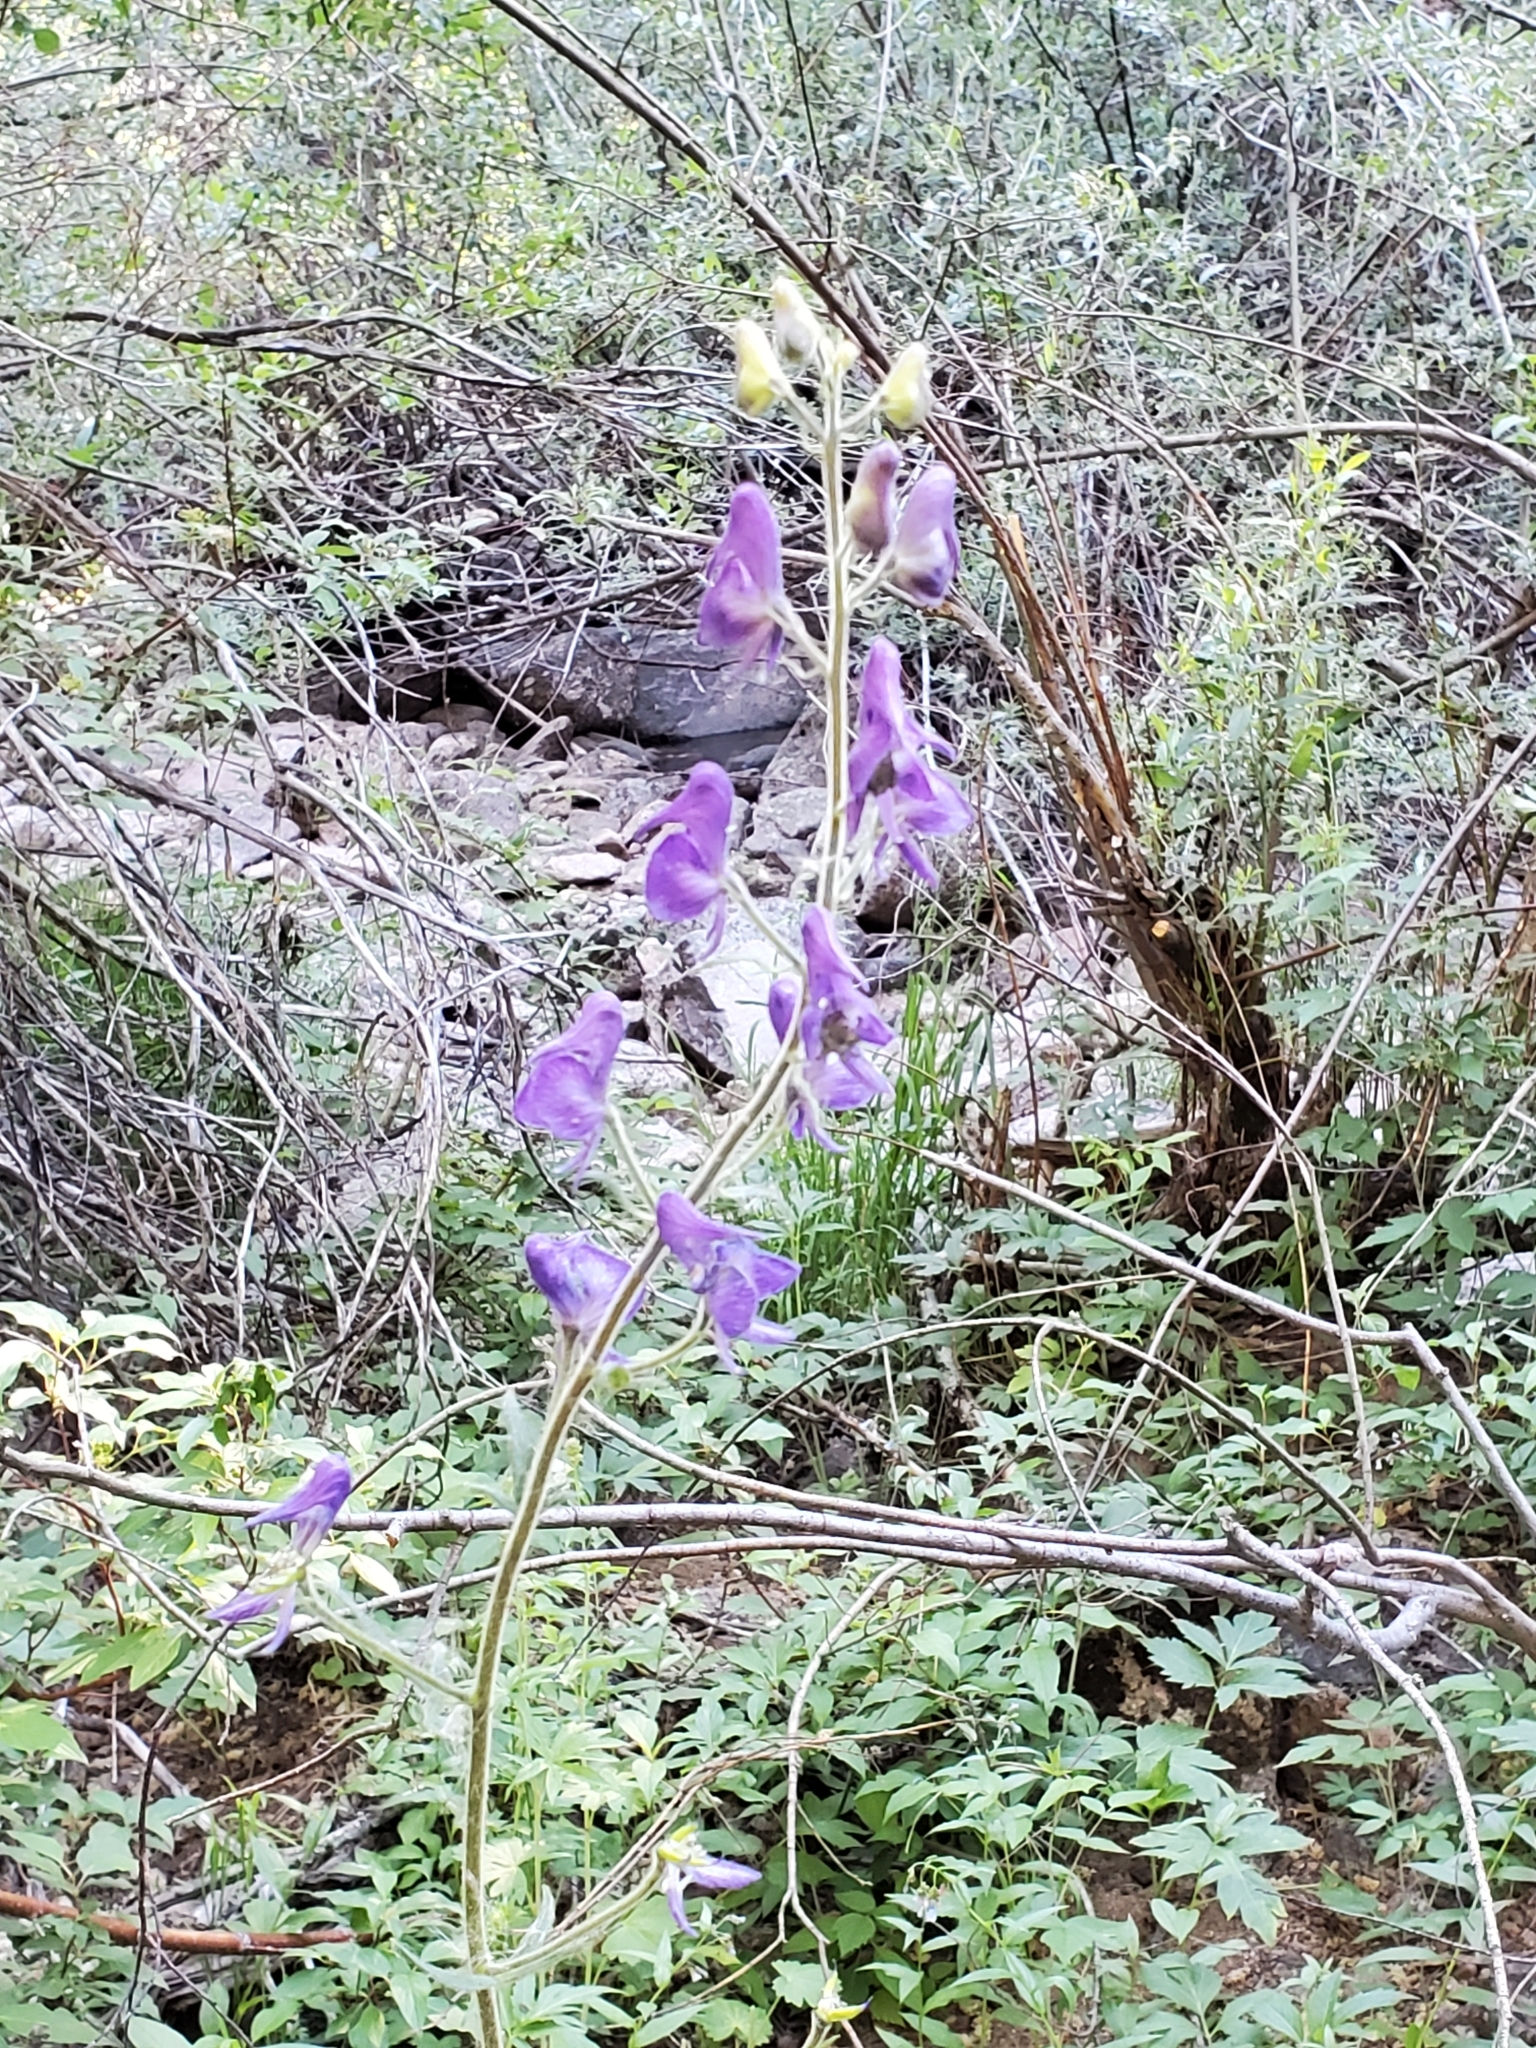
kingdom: Plantae
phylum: Tracheophyta
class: Magnoliopsida
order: Ranunculales
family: Ranunculaceae
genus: Aconitum
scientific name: Aconitum columbianum
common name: Columbia aconite
